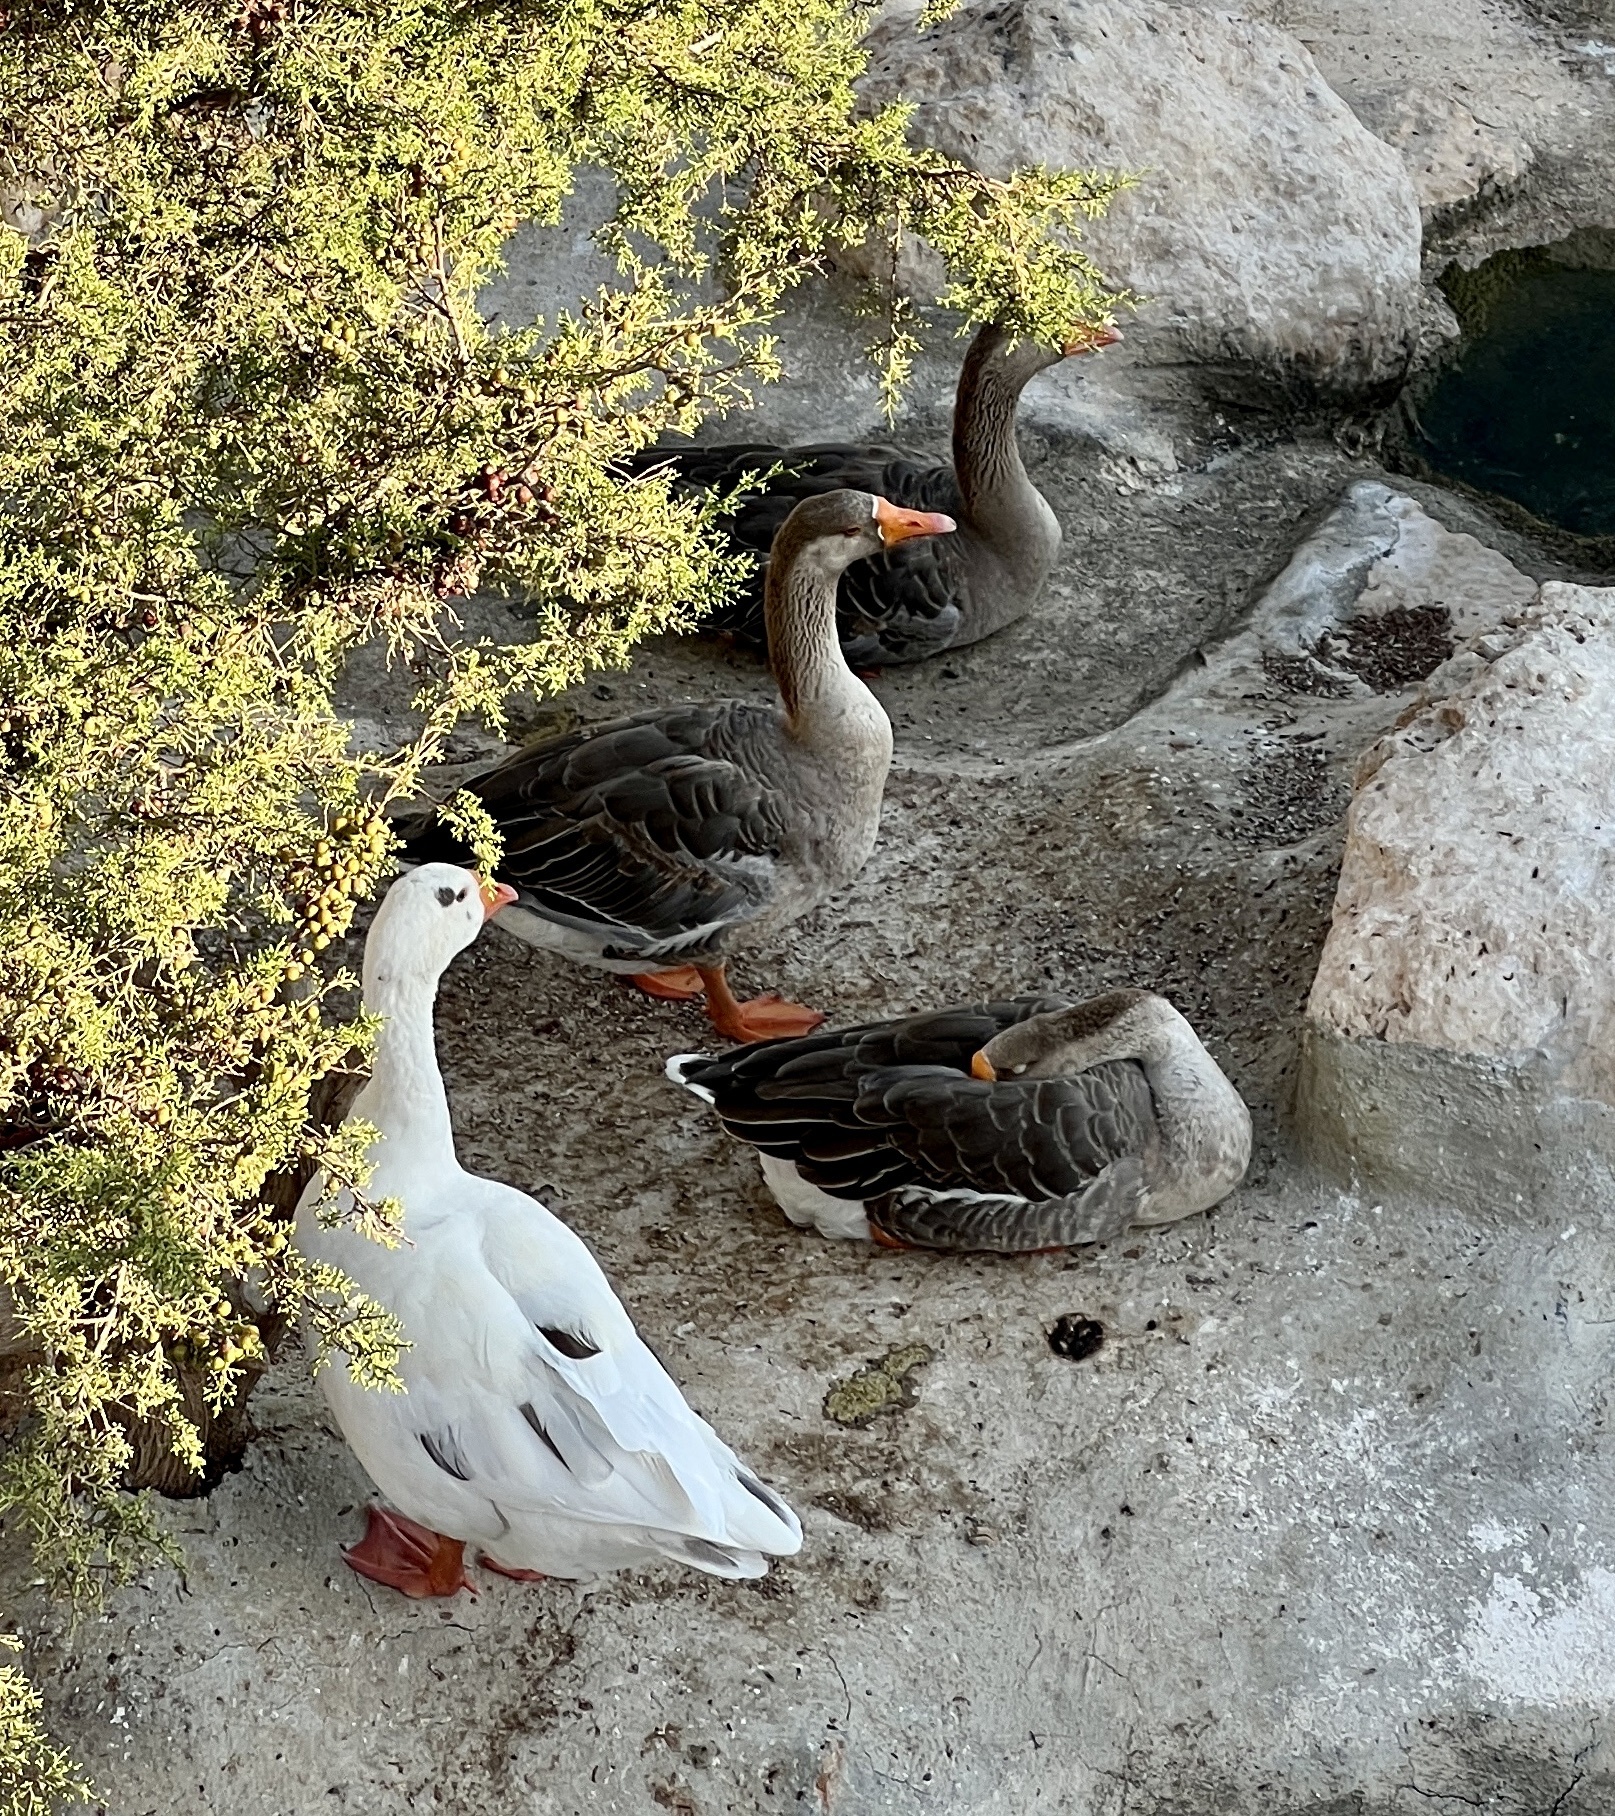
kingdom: Animalia
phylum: Chordata
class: Aves
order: Anseriformes
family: Anatidae
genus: Anser
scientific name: Anser anser
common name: Greylag goose
